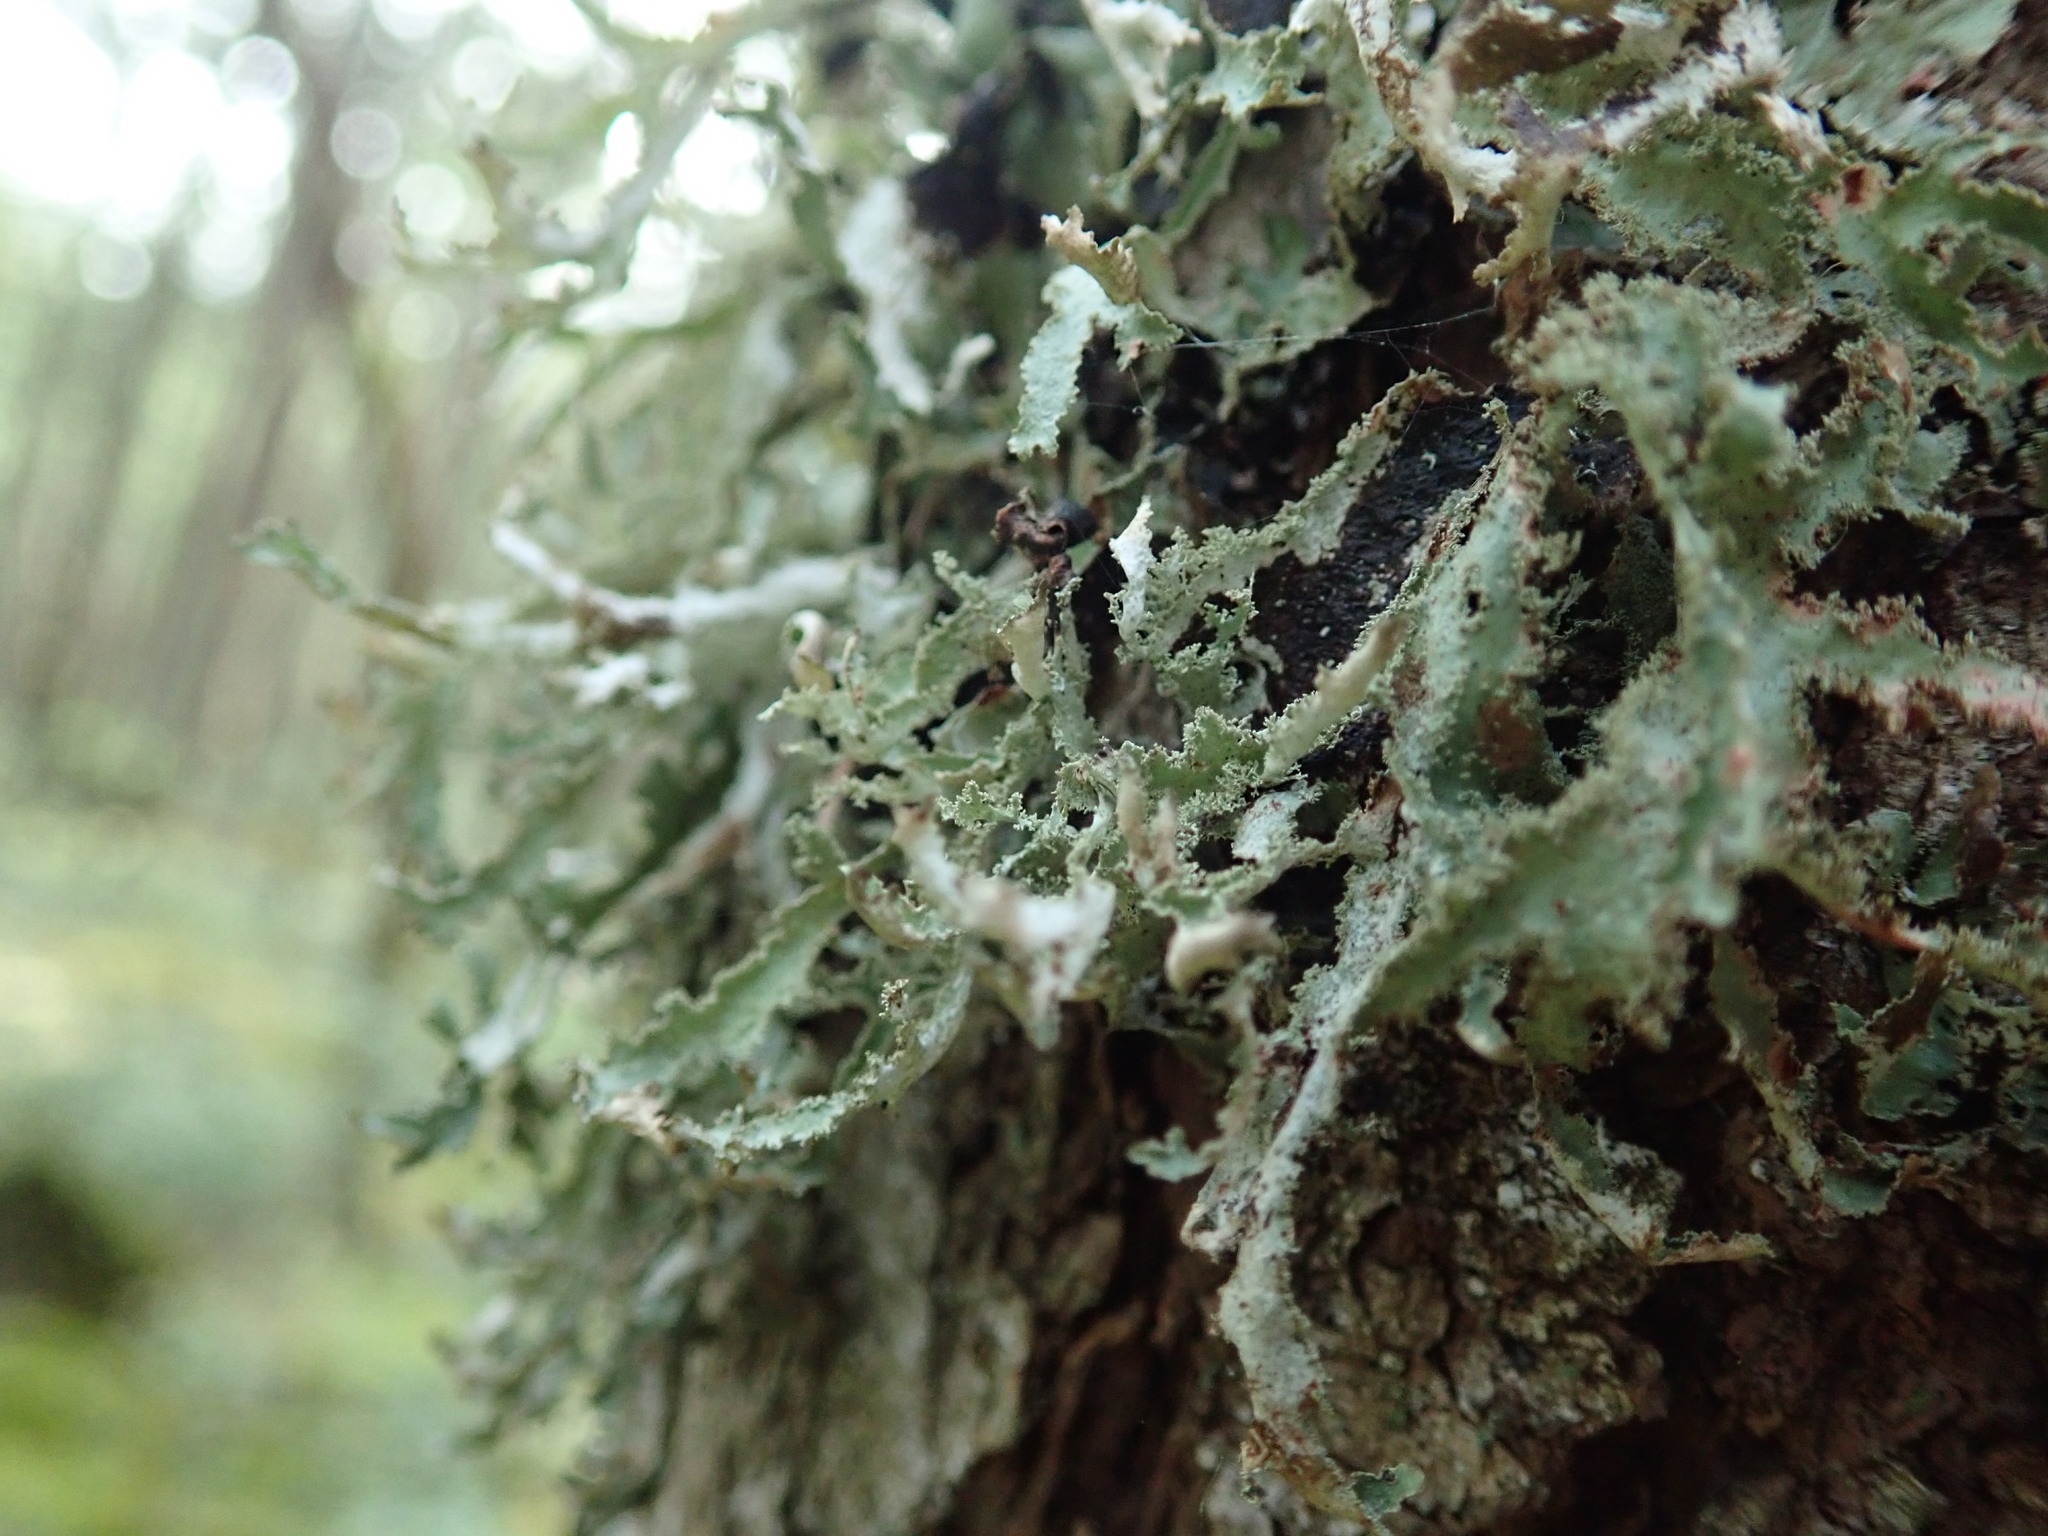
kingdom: Fungi
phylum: Ascomycota
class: Lecanoromycetes
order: Lecanorales
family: Parmeliaceae
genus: Platismatia
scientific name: Platismatia herrei
